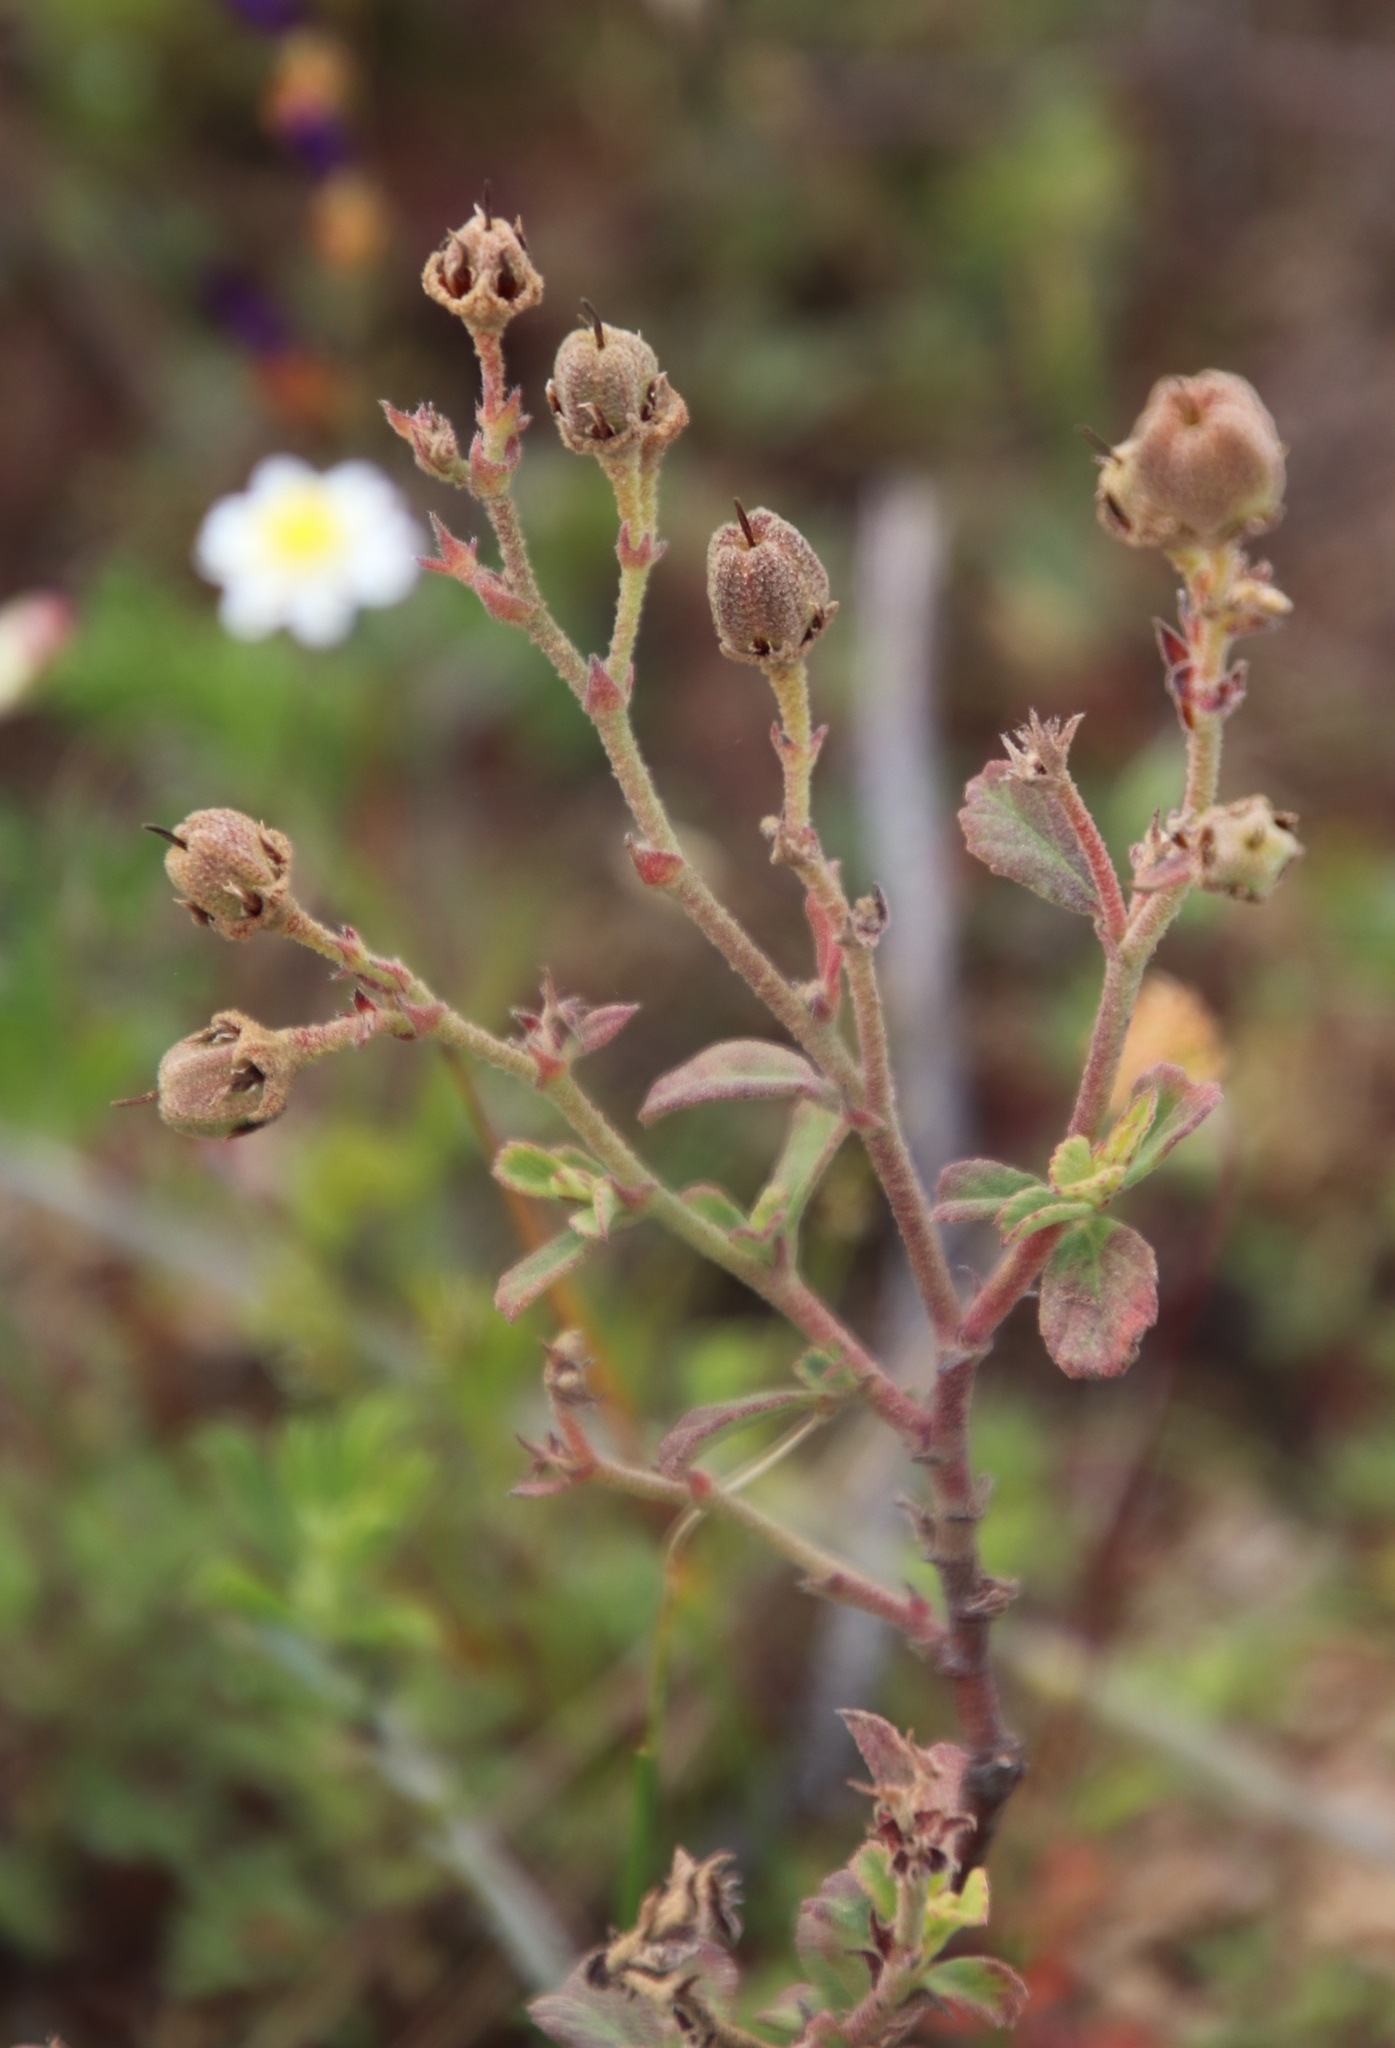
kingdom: Plantae
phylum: Tracheophyta
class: Magnoliopsida
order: Malvales
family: Malvaceae
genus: Hermannia
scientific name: Hermannia multiflora
